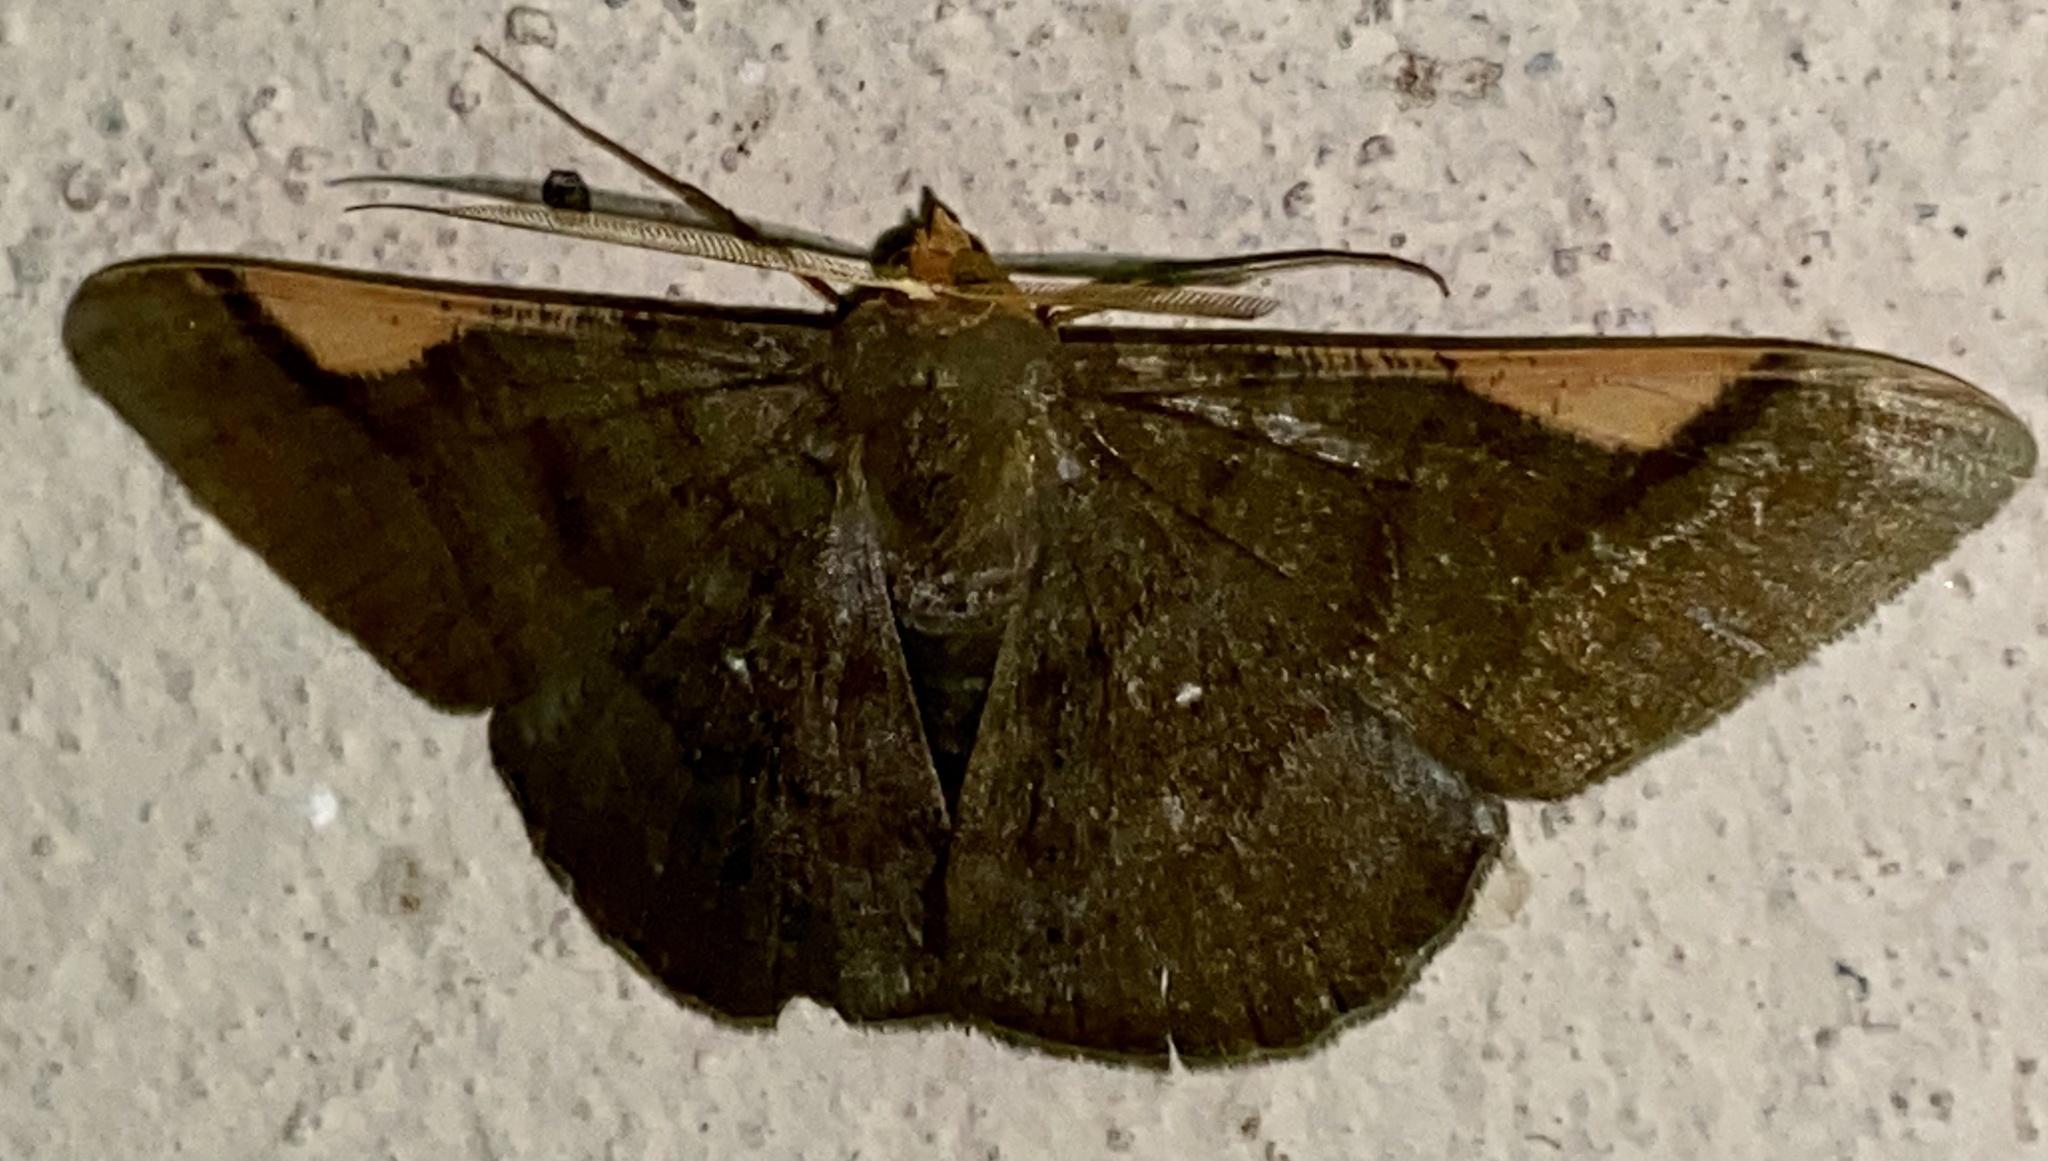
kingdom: Animalia
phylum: Arthropoda
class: Insecta
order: Lepidoptera
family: Geometridae
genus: Sphacelodes
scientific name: Sphacelodes vulneraria
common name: Looper moth
